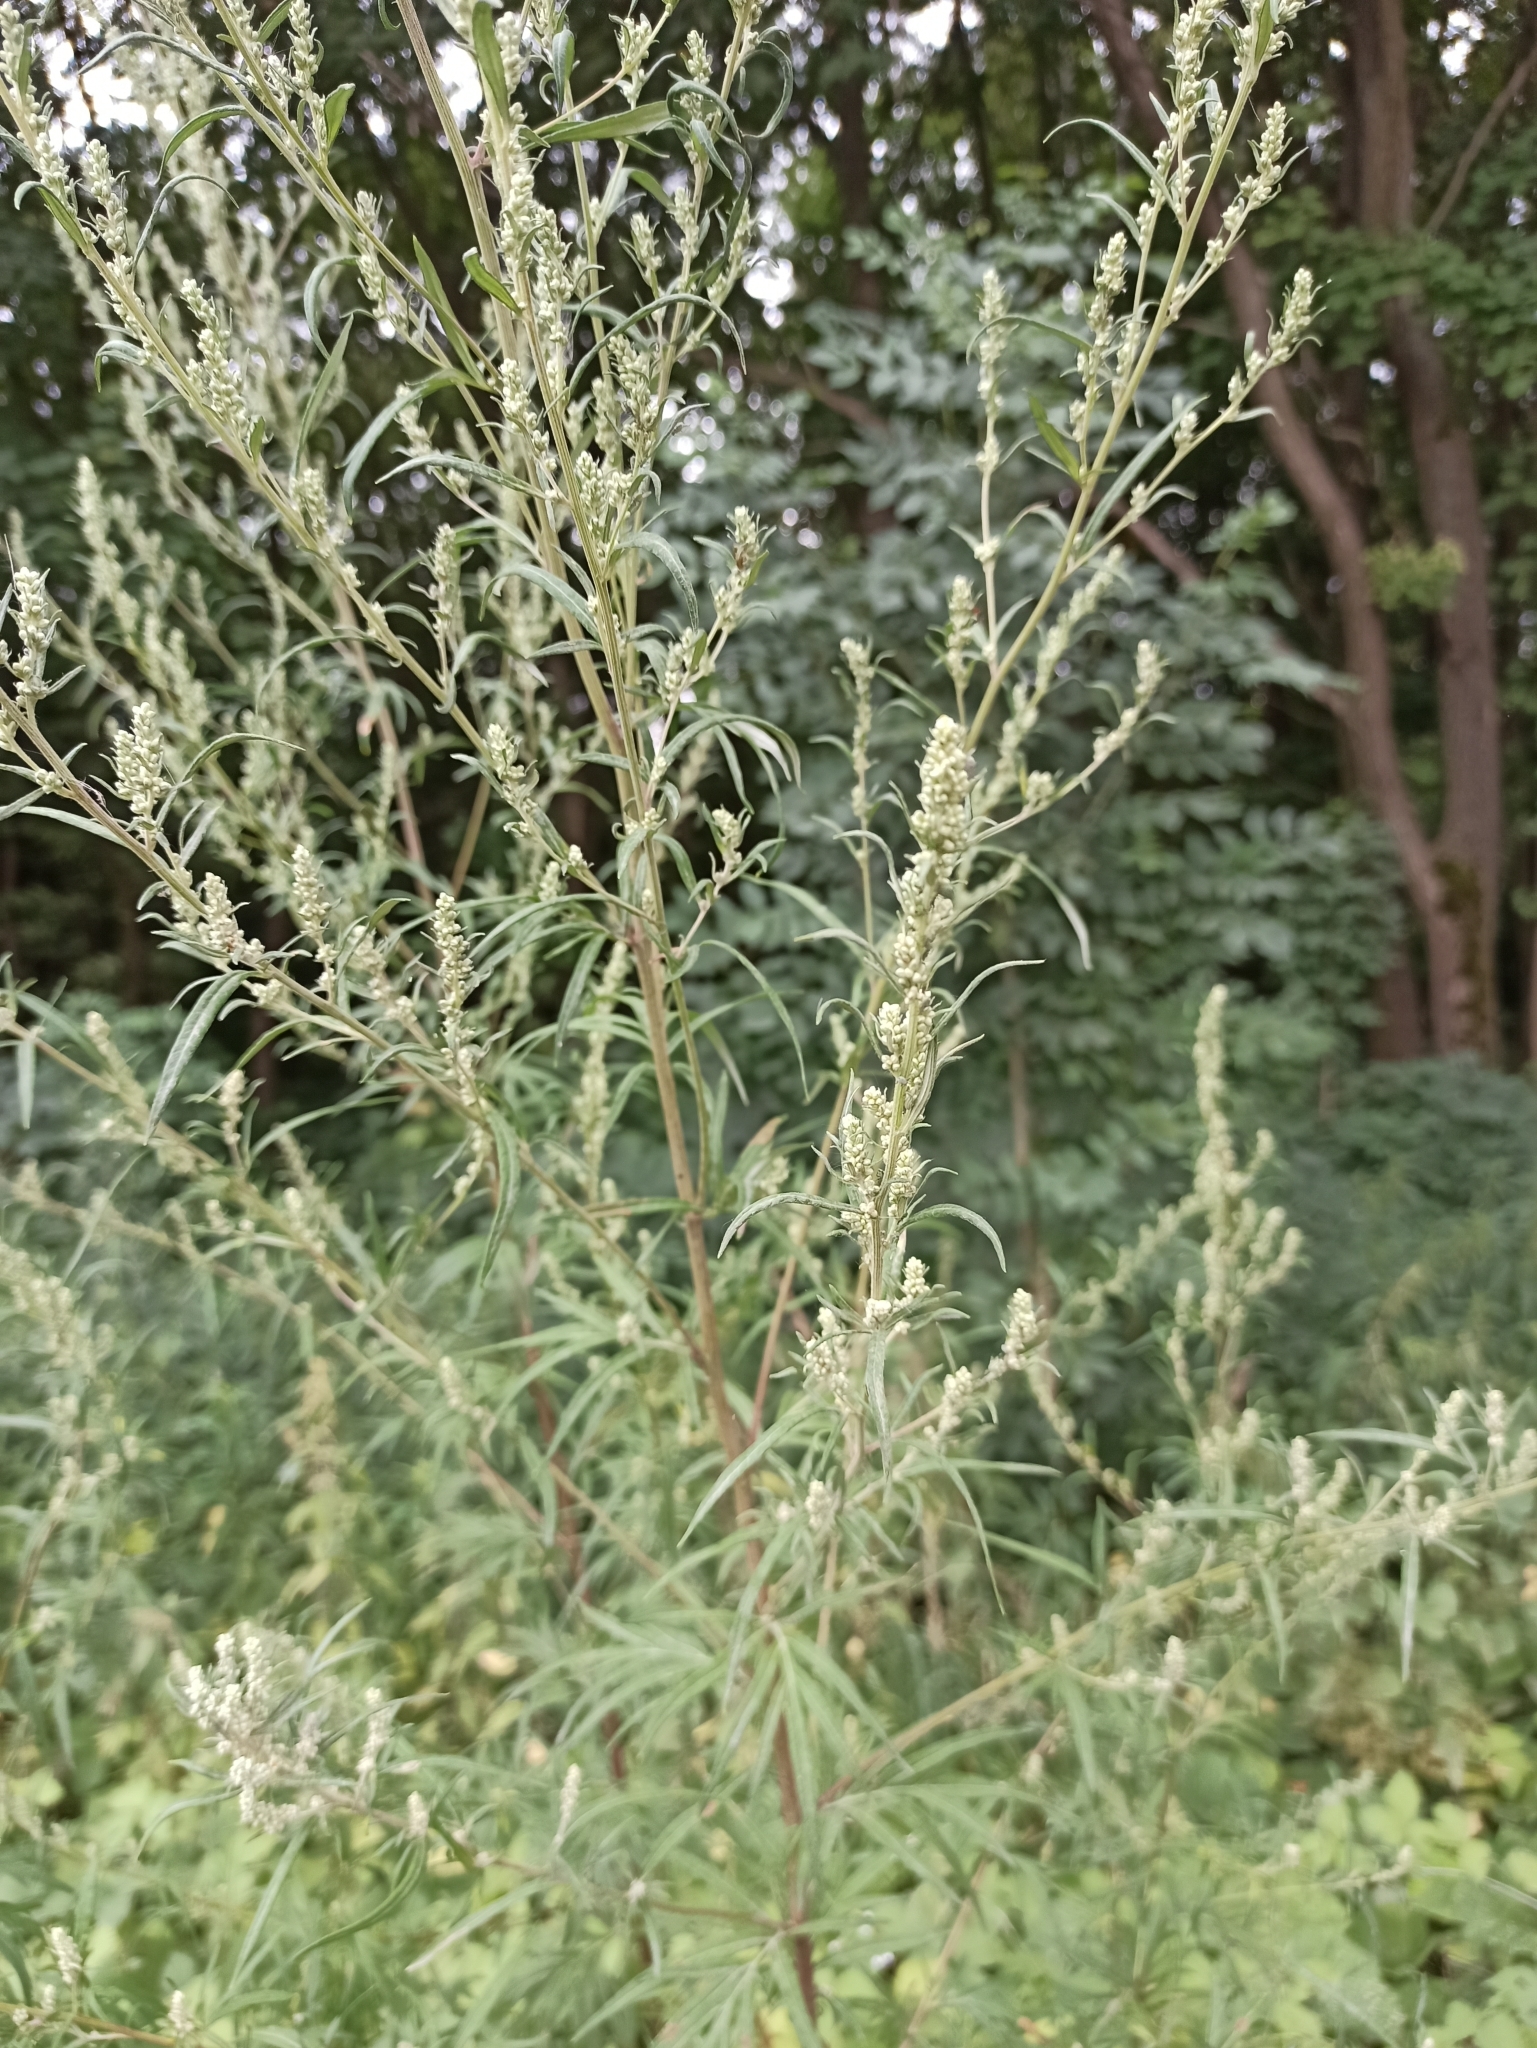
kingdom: Plantae
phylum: Tracheophyta
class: Magnoliopsida
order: Asterales
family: Asteraceae
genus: Artemisia
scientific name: Artemisia vulgaris
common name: Mugwort
